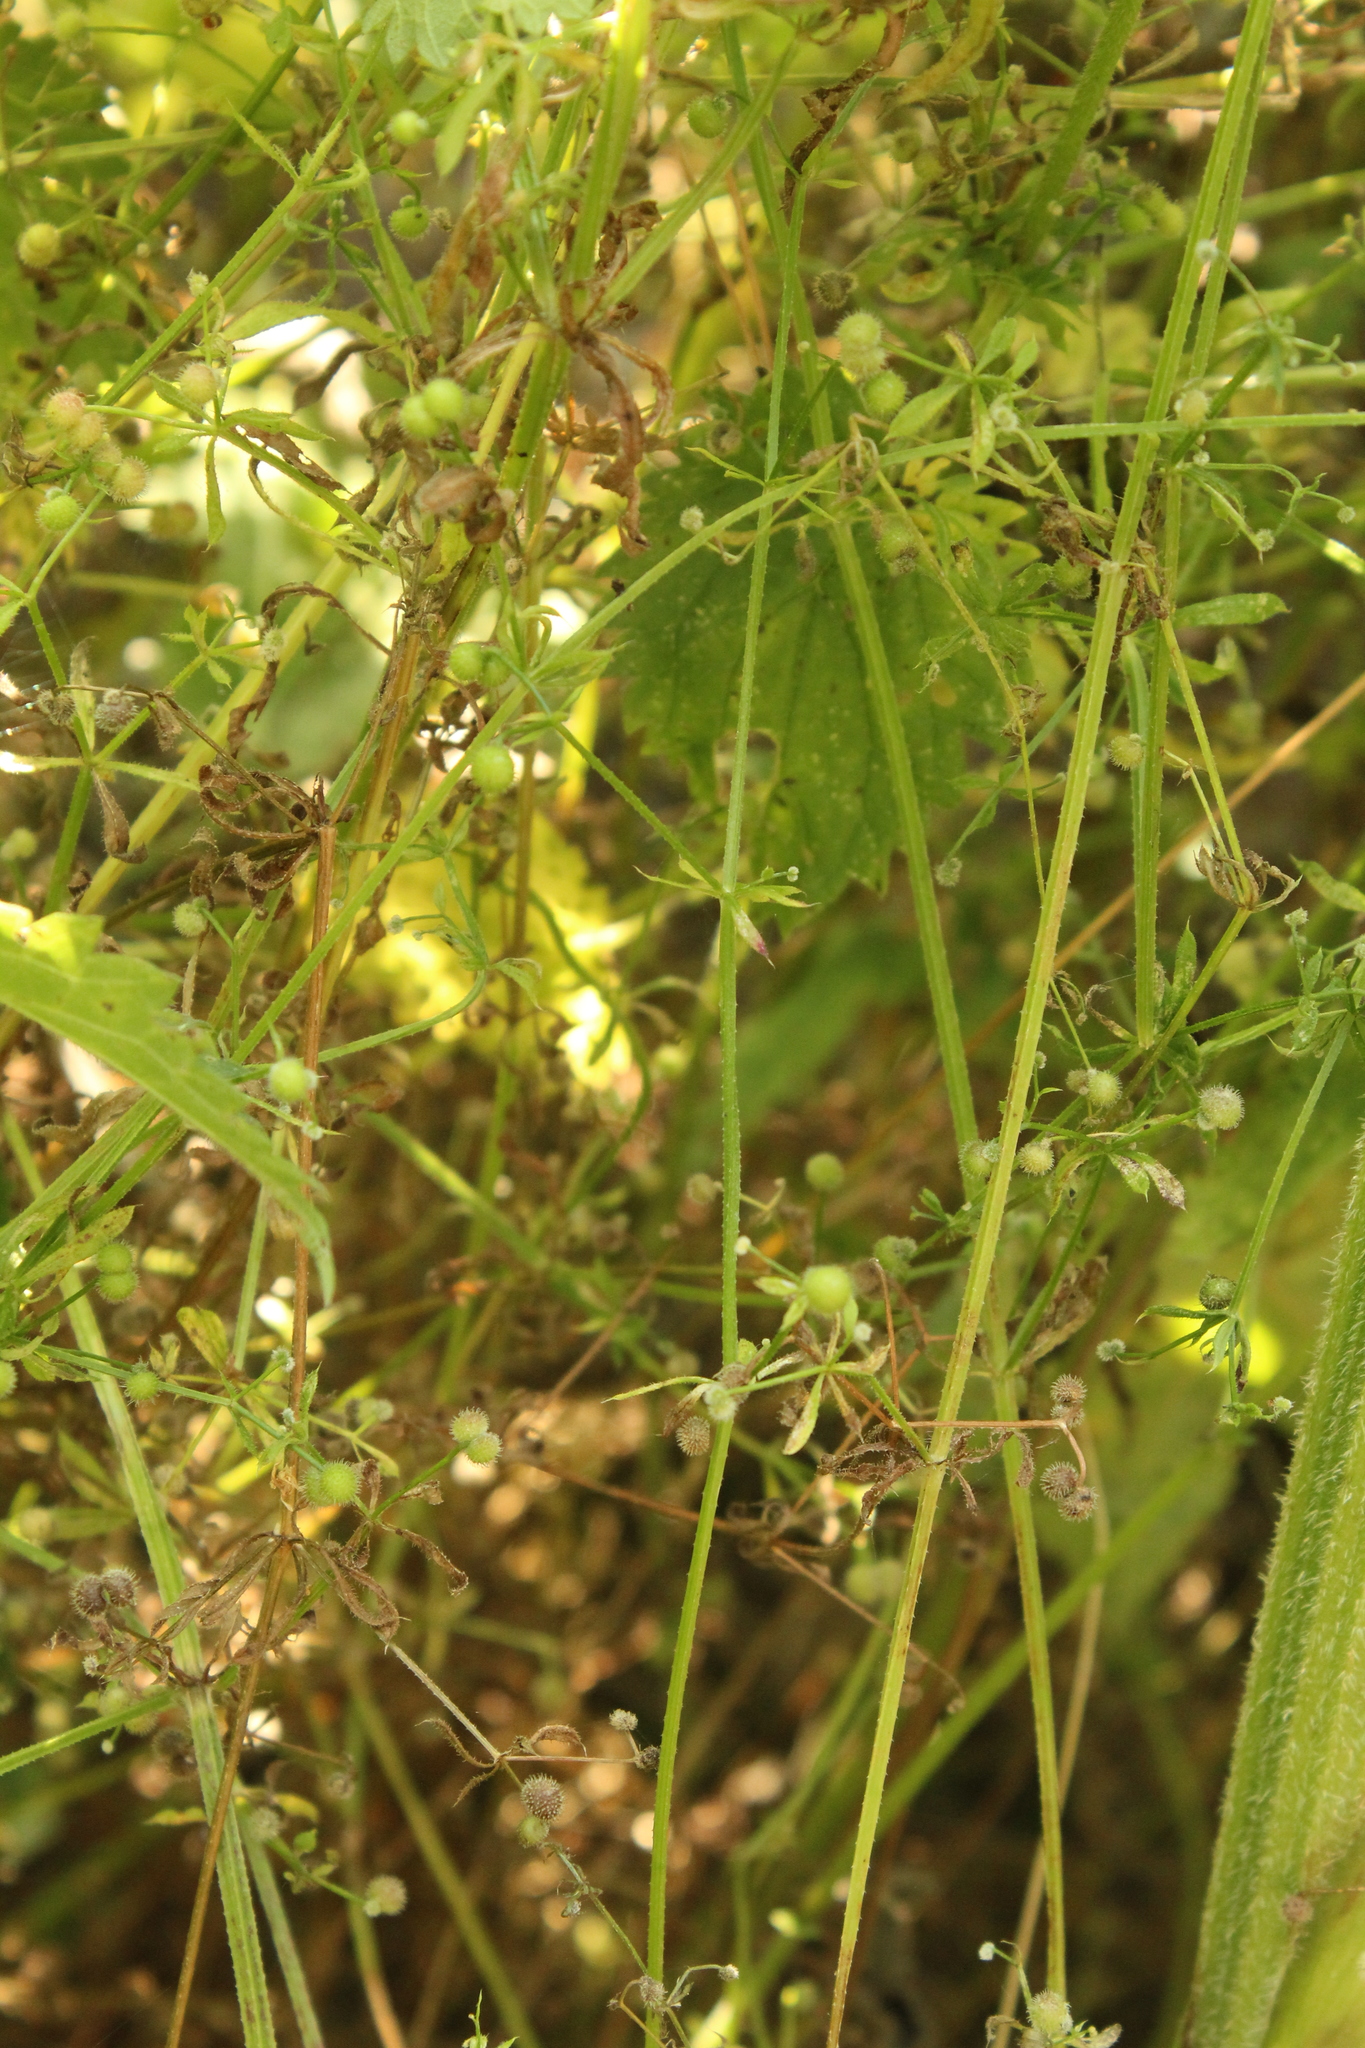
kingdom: Plantae
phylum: Tracheophyta
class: Magnoliopsida
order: Gentianales
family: Rubiaceae
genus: Galium
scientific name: Galium aparine
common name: Cleavers
